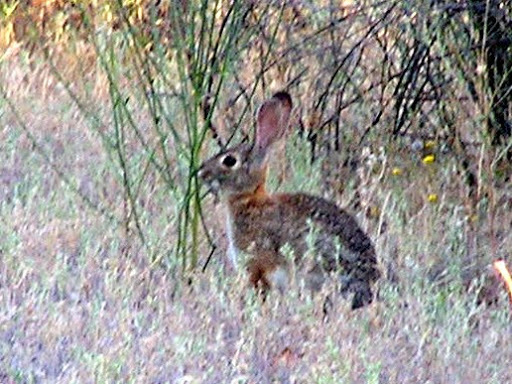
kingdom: Animalia
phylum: Chordata
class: Mammalia
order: Lagomorpha
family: Leporidae
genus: Sylvilagus
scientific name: Sylvilagus audubonii
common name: Desert cottontail
